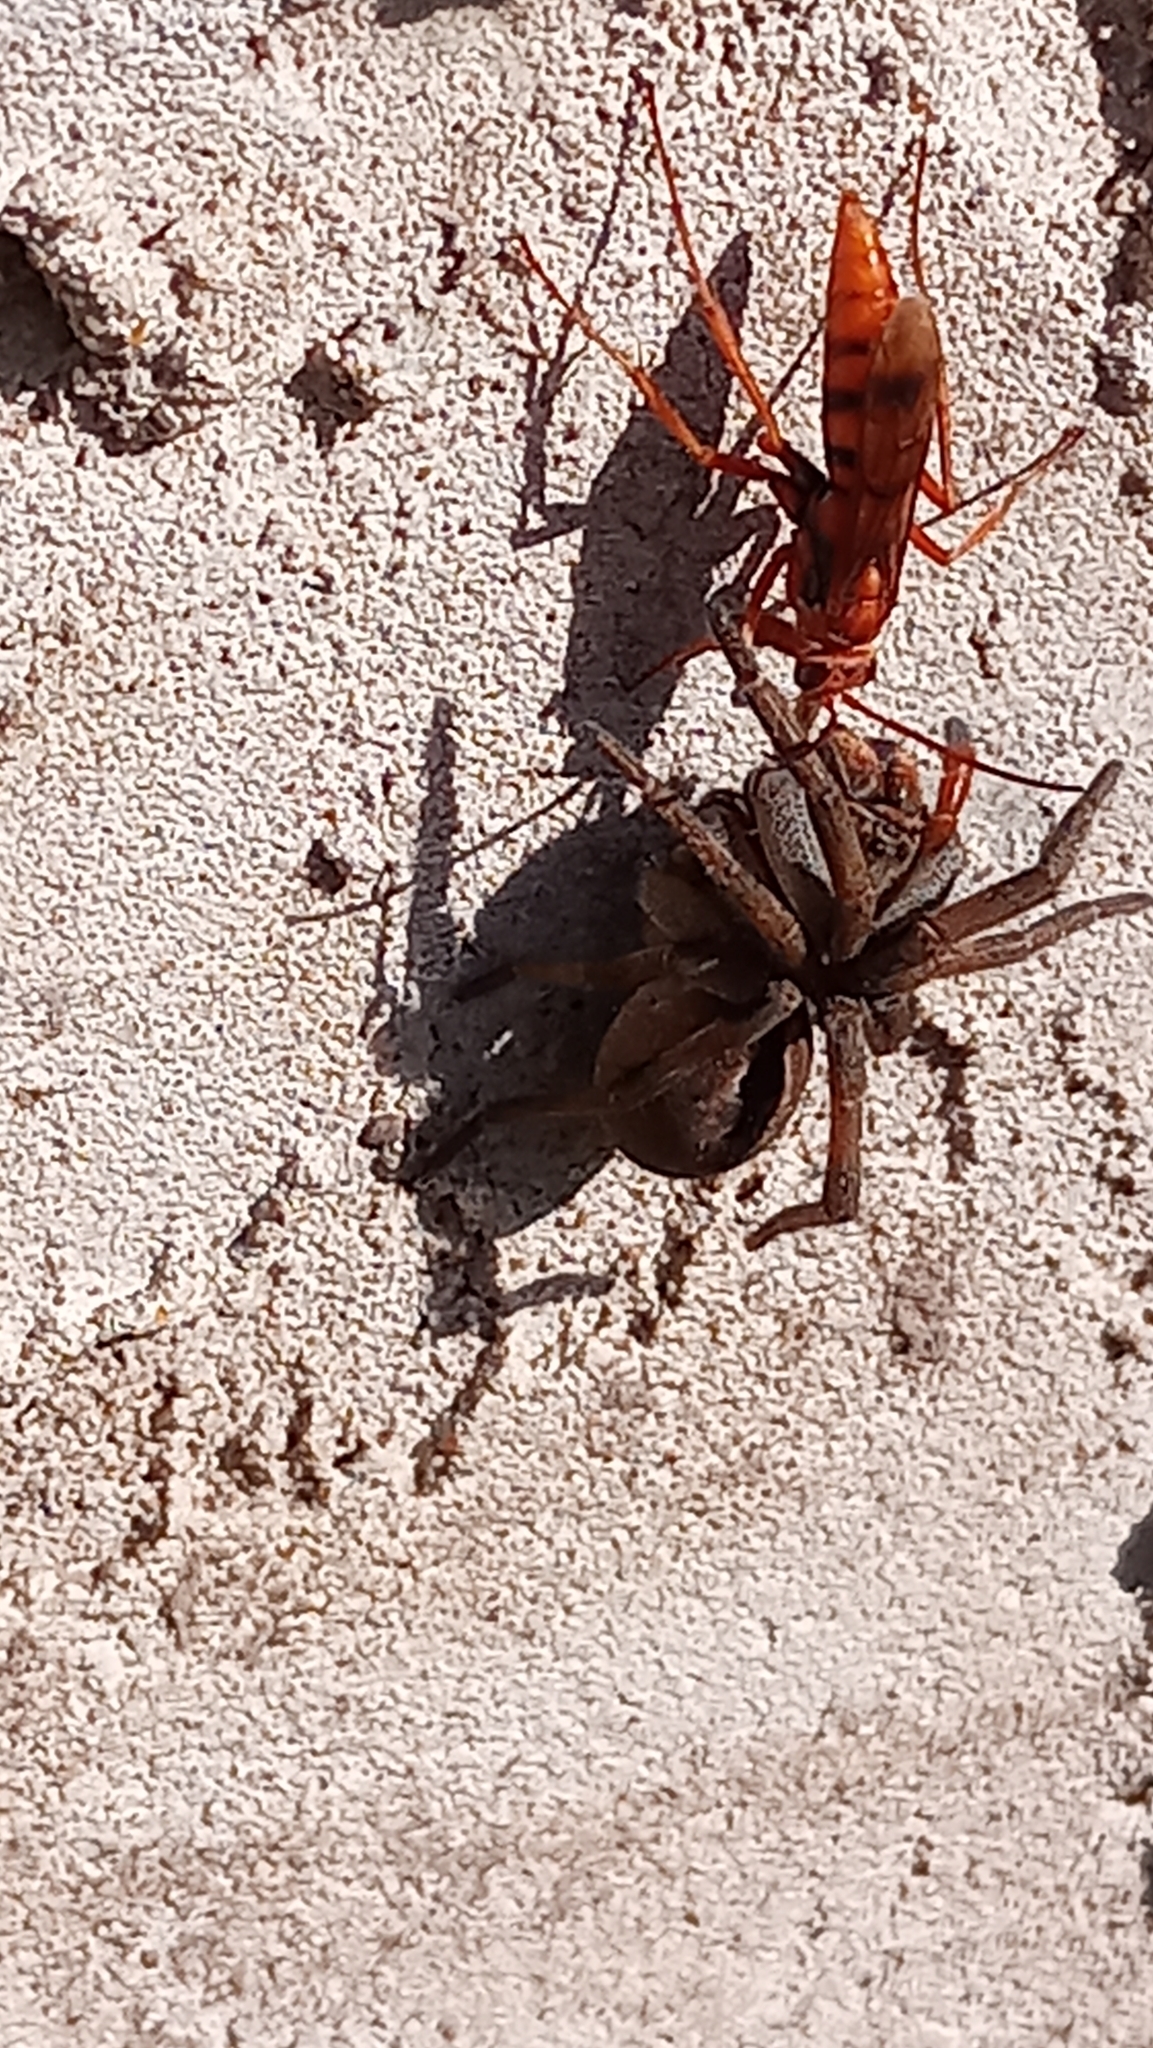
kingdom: Animalia
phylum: Arthropoda
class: Arachnida
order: Araneae
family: Lycosidae
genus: Lycosa
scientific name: Lycosa erythrognatha
